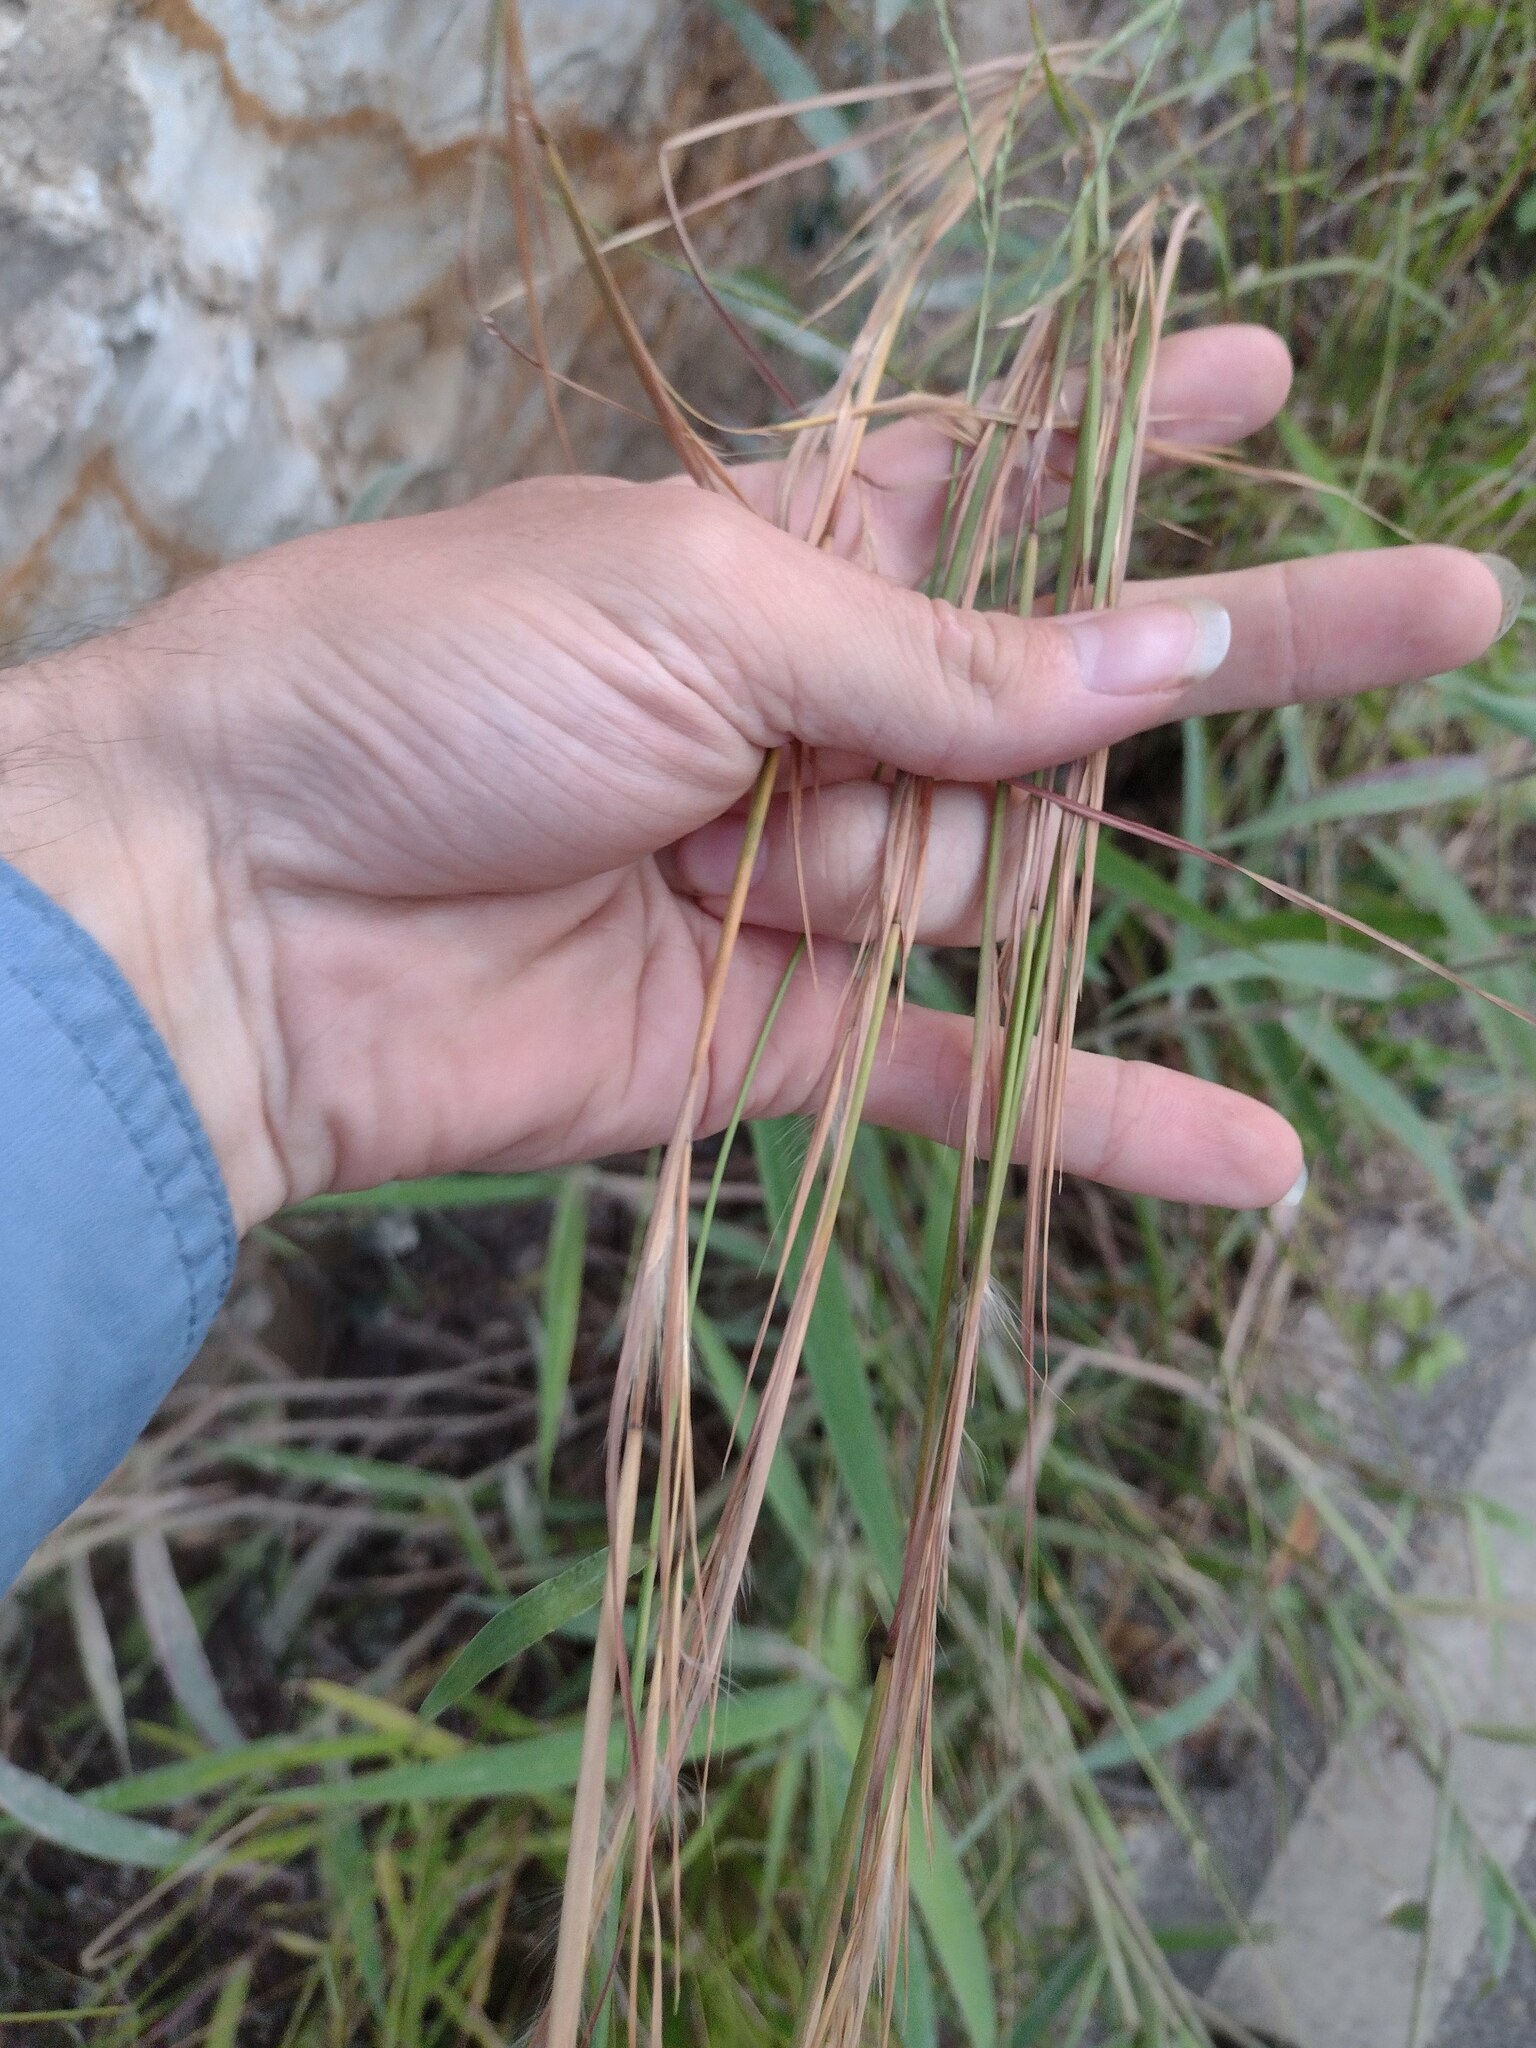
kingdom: Plantae
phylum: Tracheophyta
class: Liliopsida
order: Poales
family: Poaceae
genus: Andropogon
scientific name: Andropogon virginicus
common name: Broomsedge bluestem
